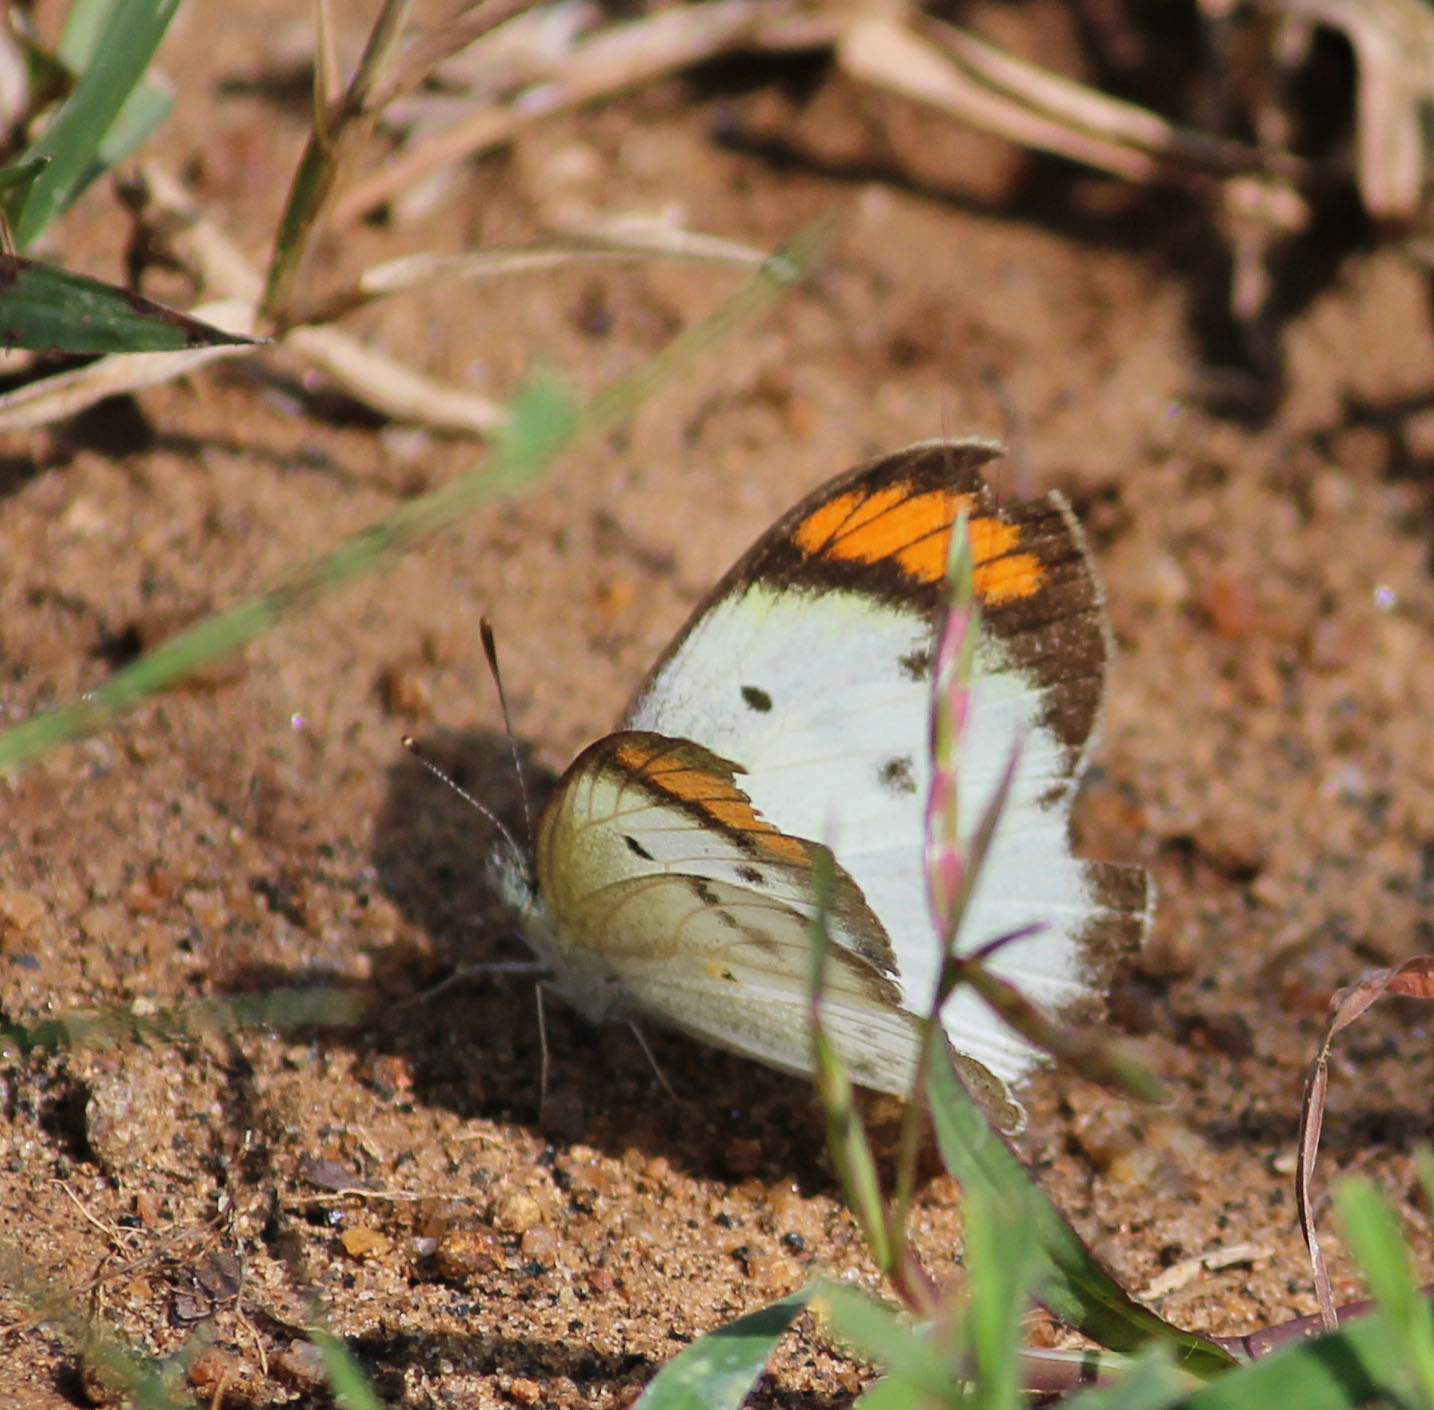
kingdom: Animalia
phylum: Arthropoda
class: Insecta
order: Lepidoptera
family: Pieridae
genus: Colotis
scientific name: Colotis etrida
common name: Little orange tip
